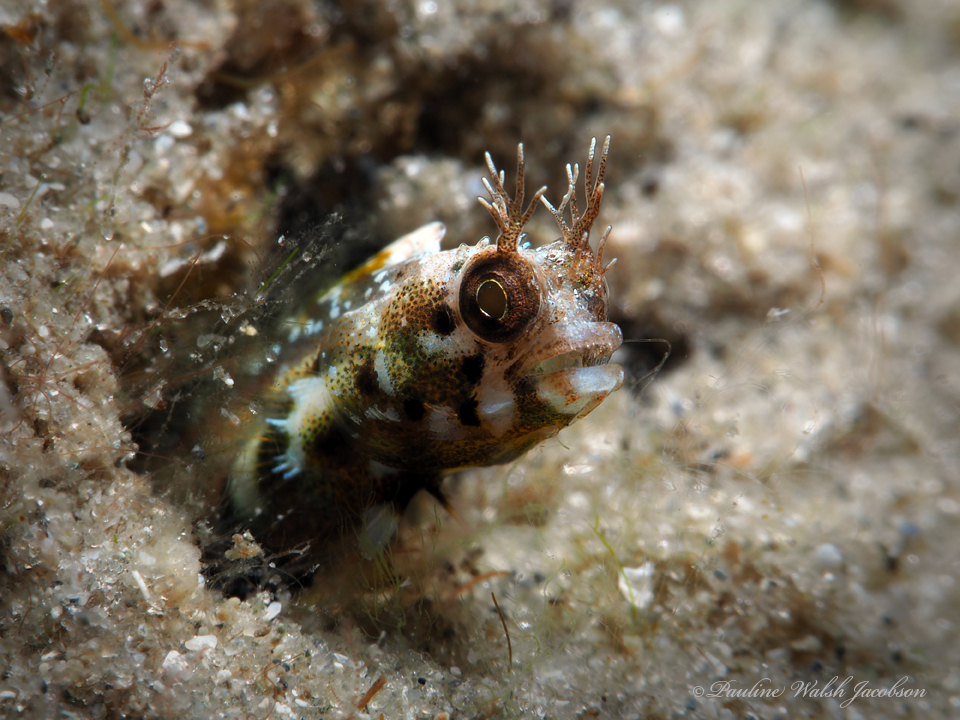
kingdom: Animalia
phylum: Chordata
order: Perciformes
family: Chaenopsidae
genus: Acanthemblemaria
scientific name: Acanthemblemaria aspera
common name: Roughhead blenny
